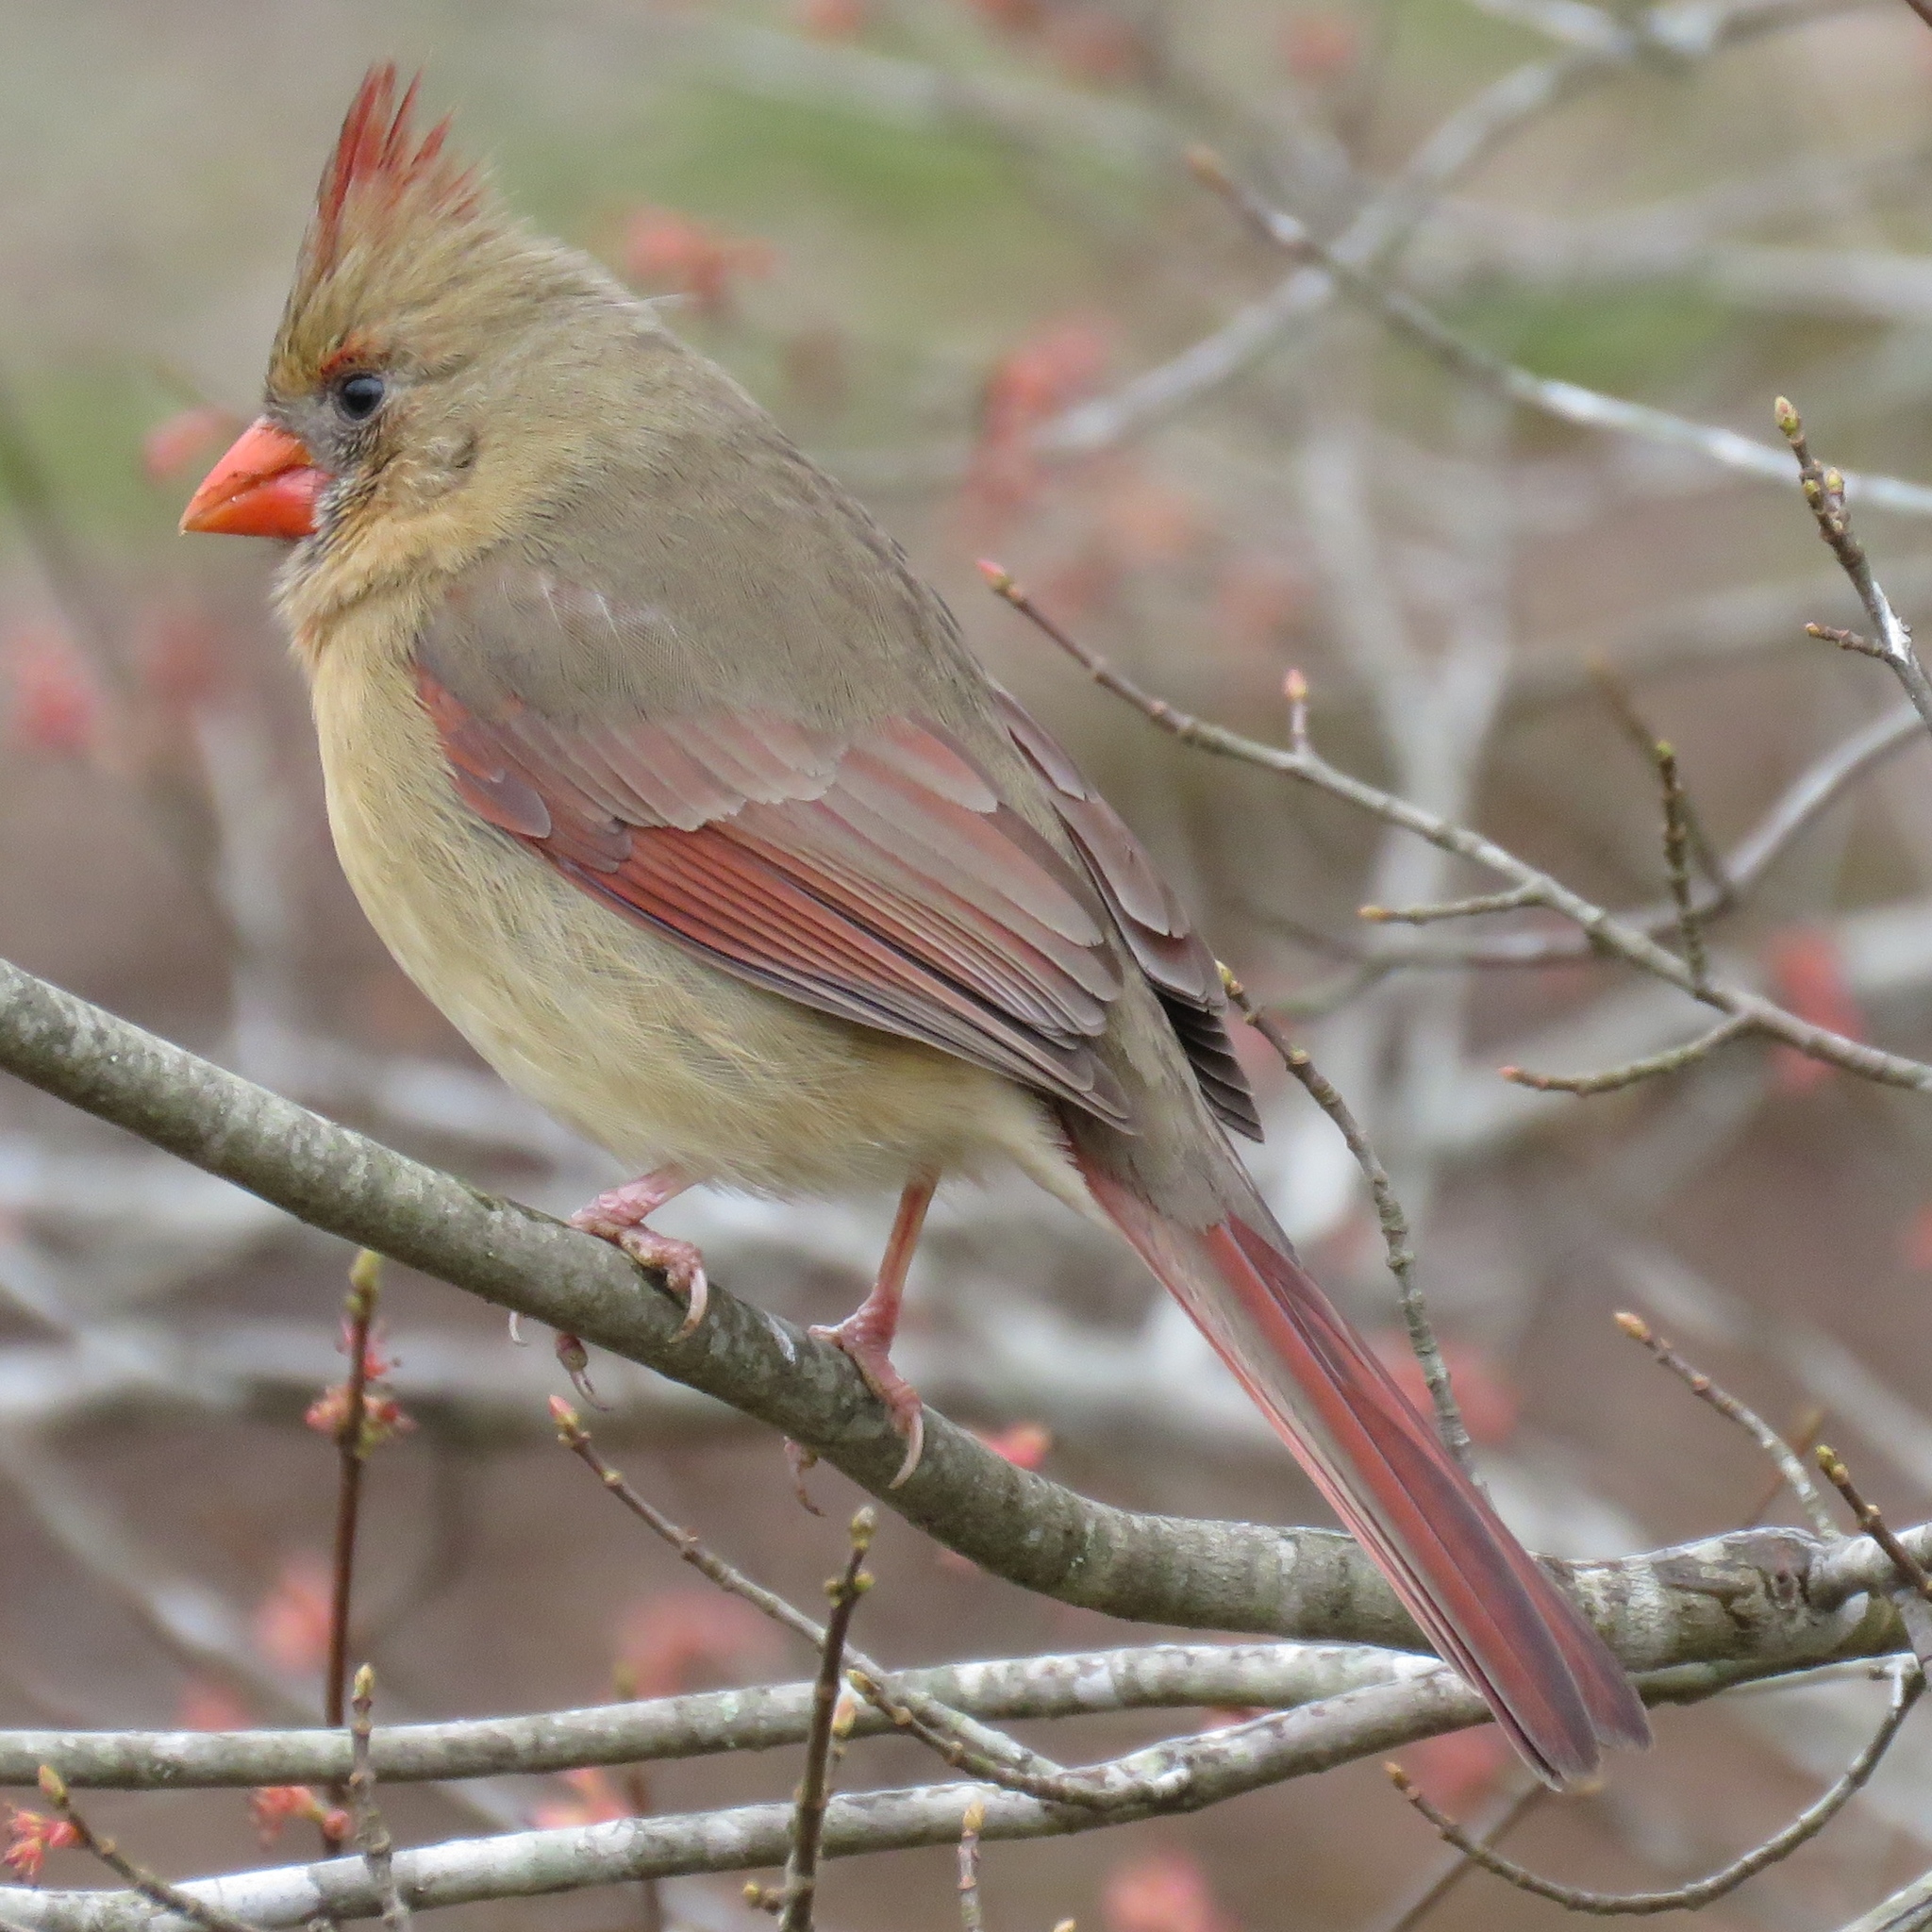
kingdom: Animalia
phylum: Chordata
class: Aves
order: Passeriformes
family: Cardinalidae
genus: Cardinalis
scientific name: Cardinalis cardinalis
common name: Northern cardinal
